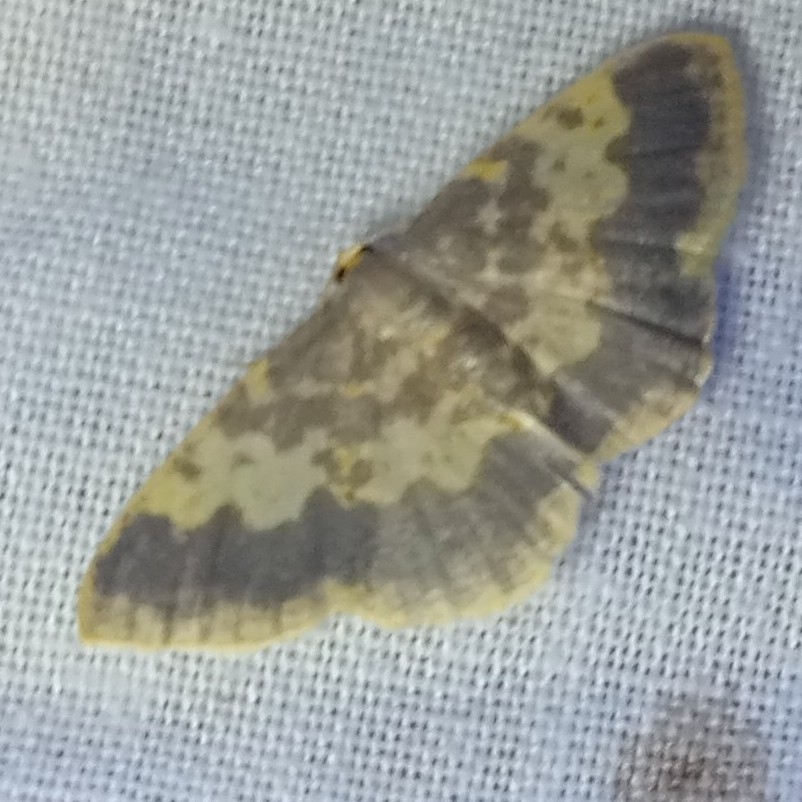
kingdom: Animalia
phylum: Arthropoda
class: Insecta
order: Lepidoptera
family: Geometridae
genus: Peratophyga
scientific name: Peratophyga hyalinata
